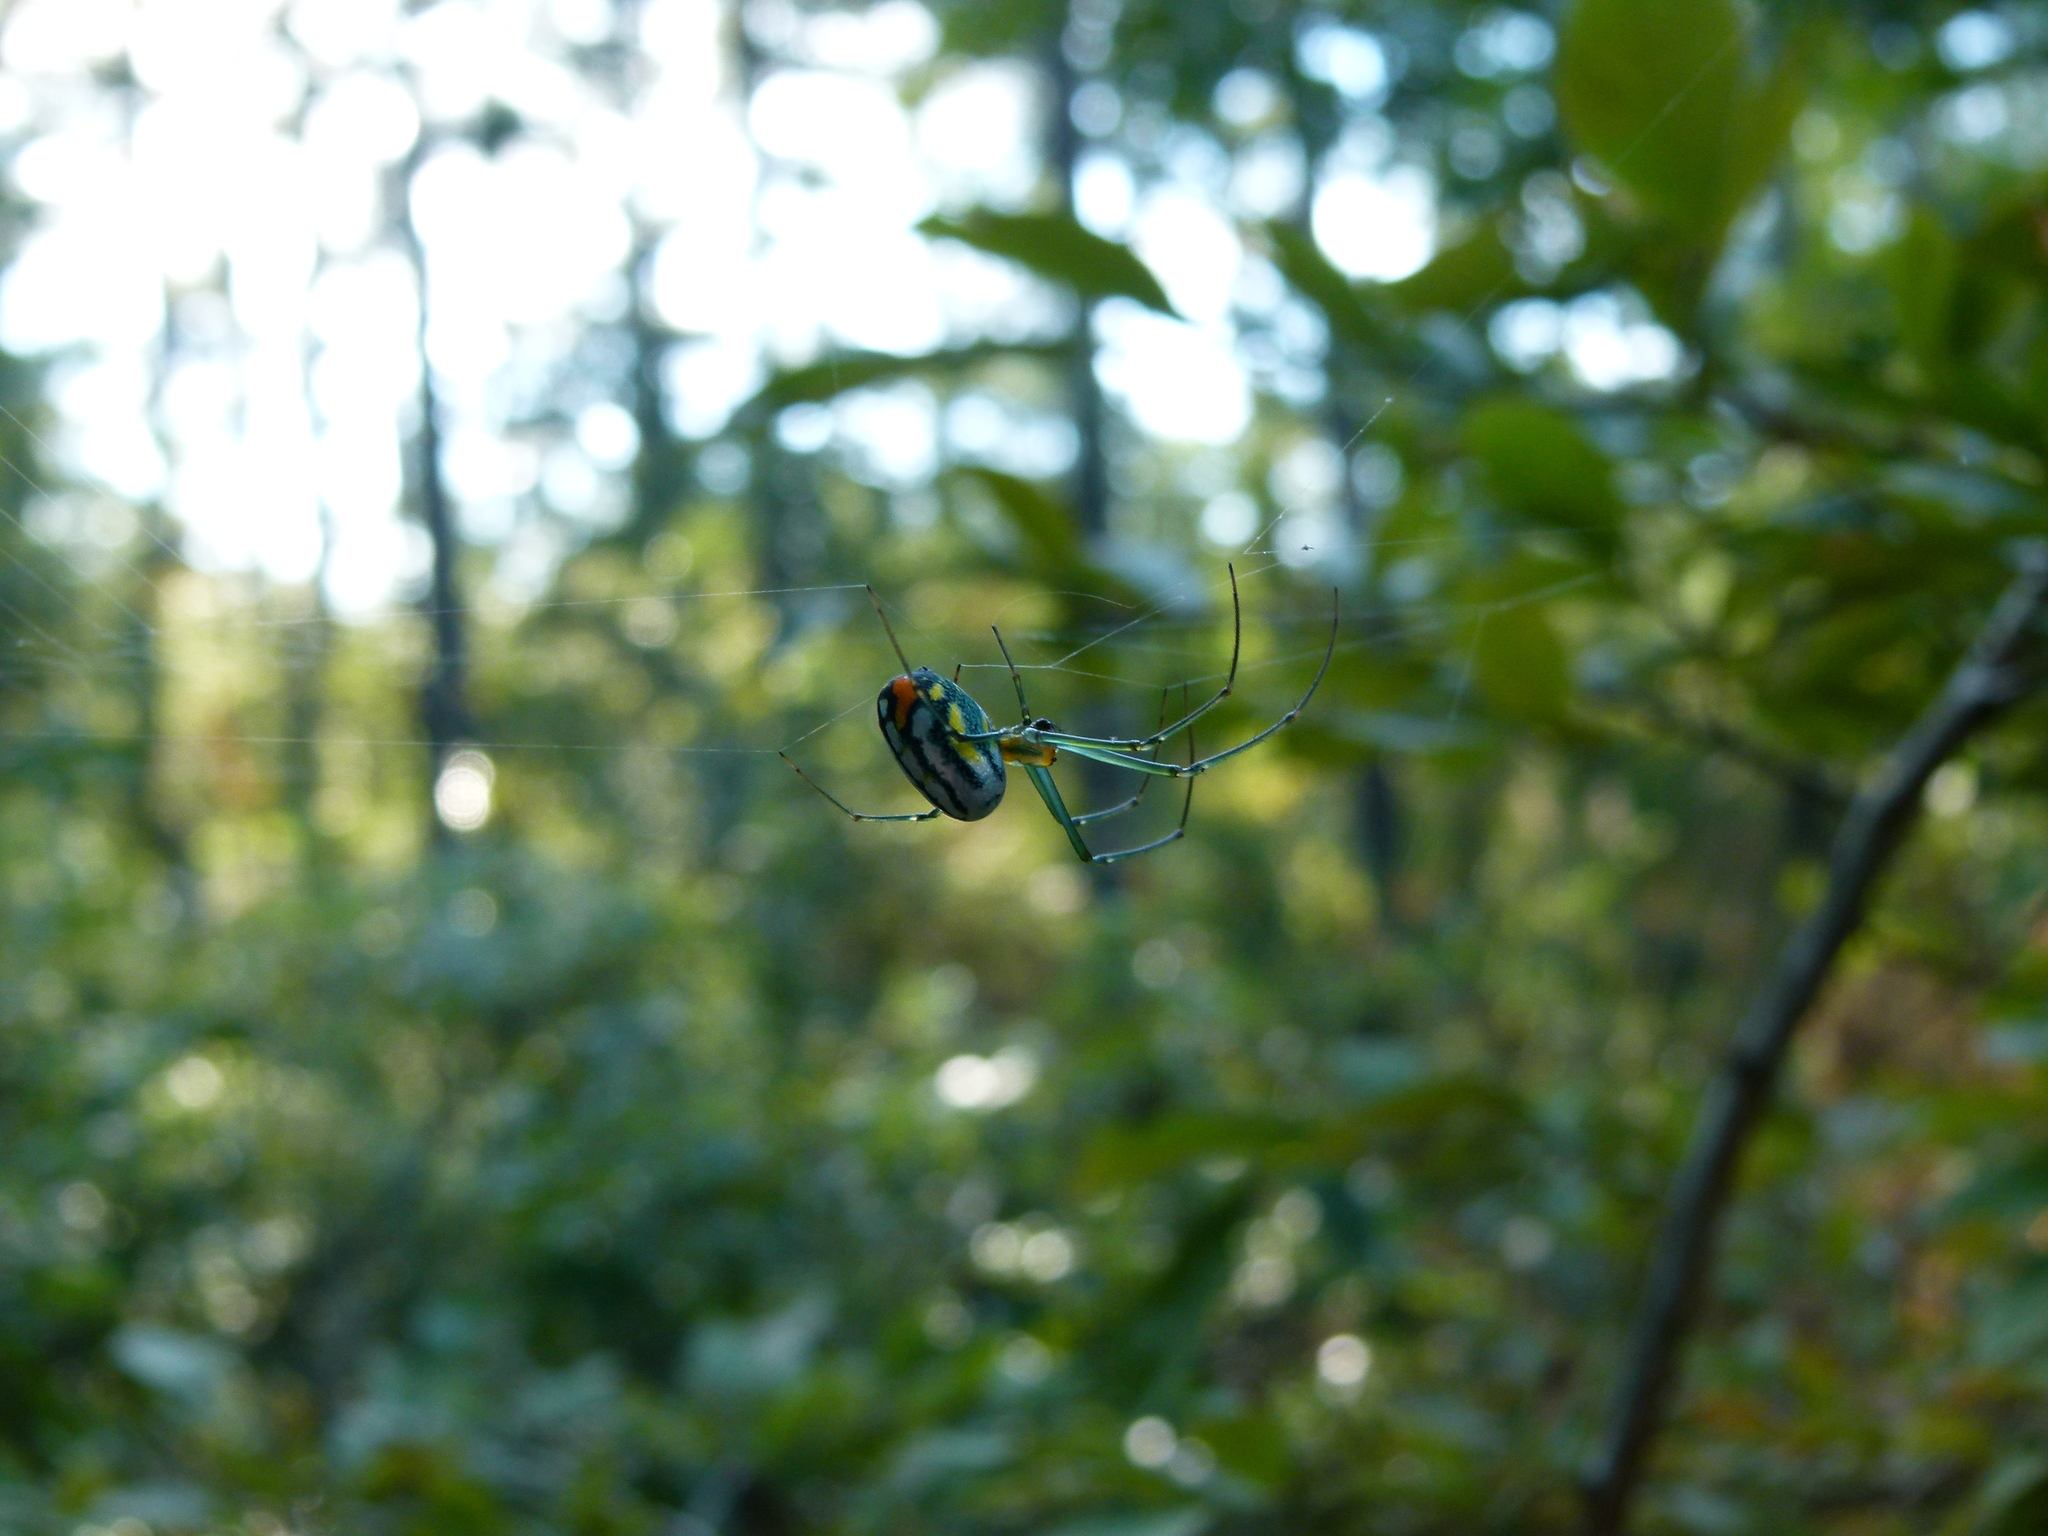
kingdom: Animalia
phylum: Arthropoda
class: Arachnida
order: Araneae
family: Tetragnathidae
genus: Leucauge
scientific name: Leucauge argyrobapta
